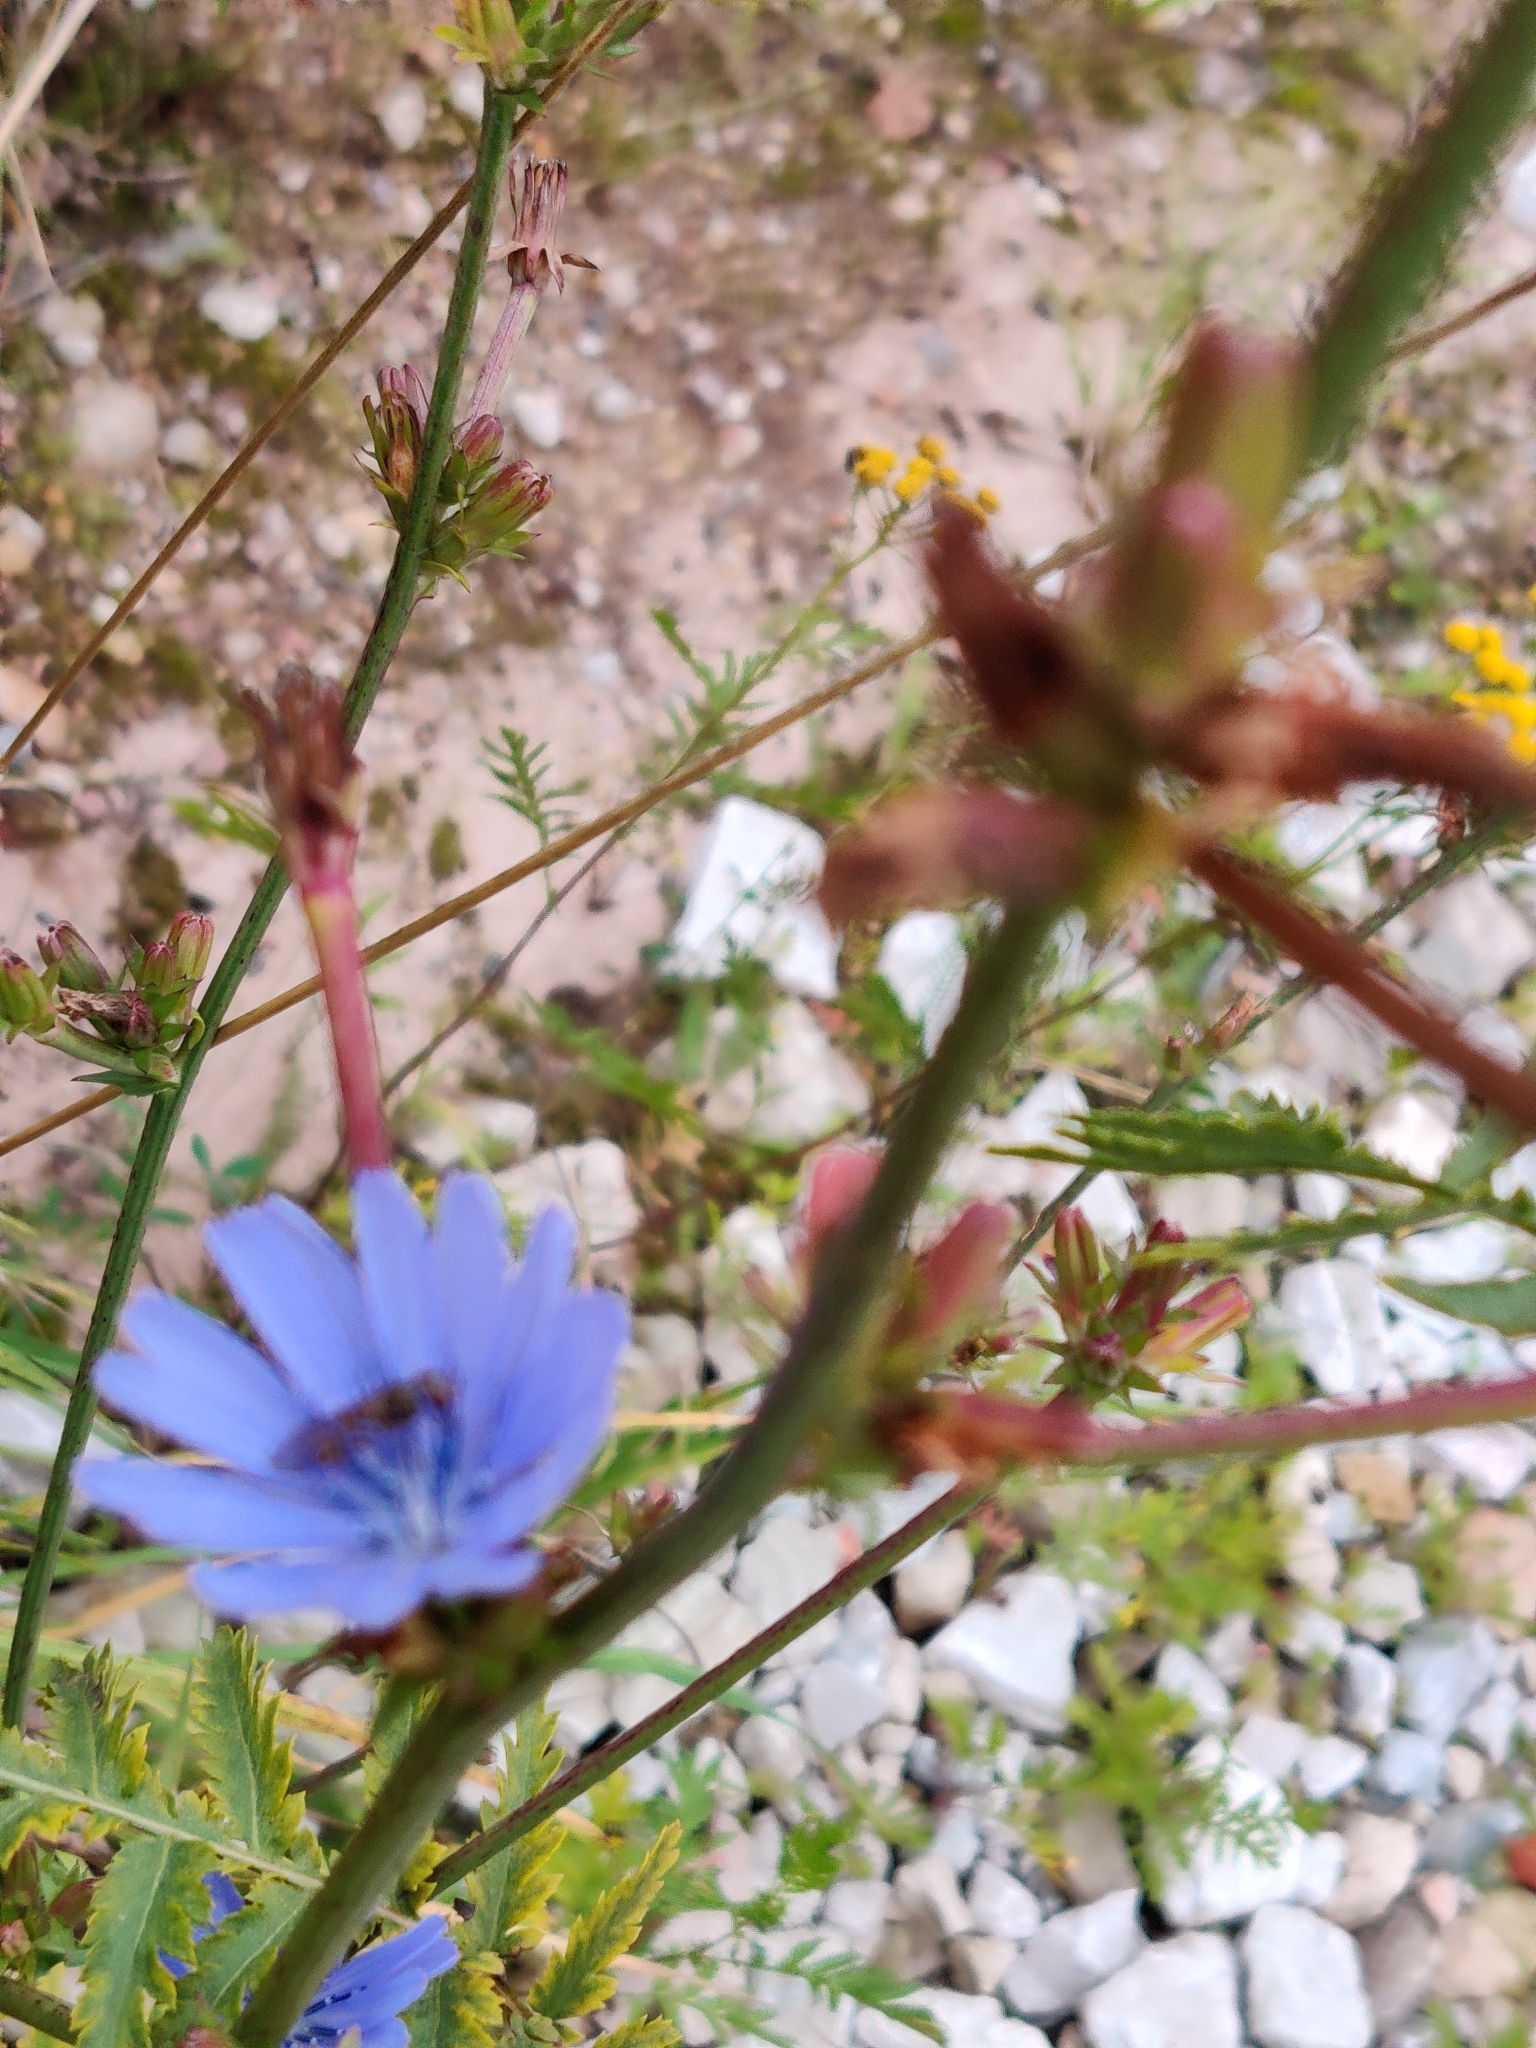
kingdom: Plantae
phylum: Tracheophyta
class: Magnoliopsida
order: Asterales
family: Asteraceae
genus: Cichorium
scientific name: Cichorium intybus
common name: Chicory
